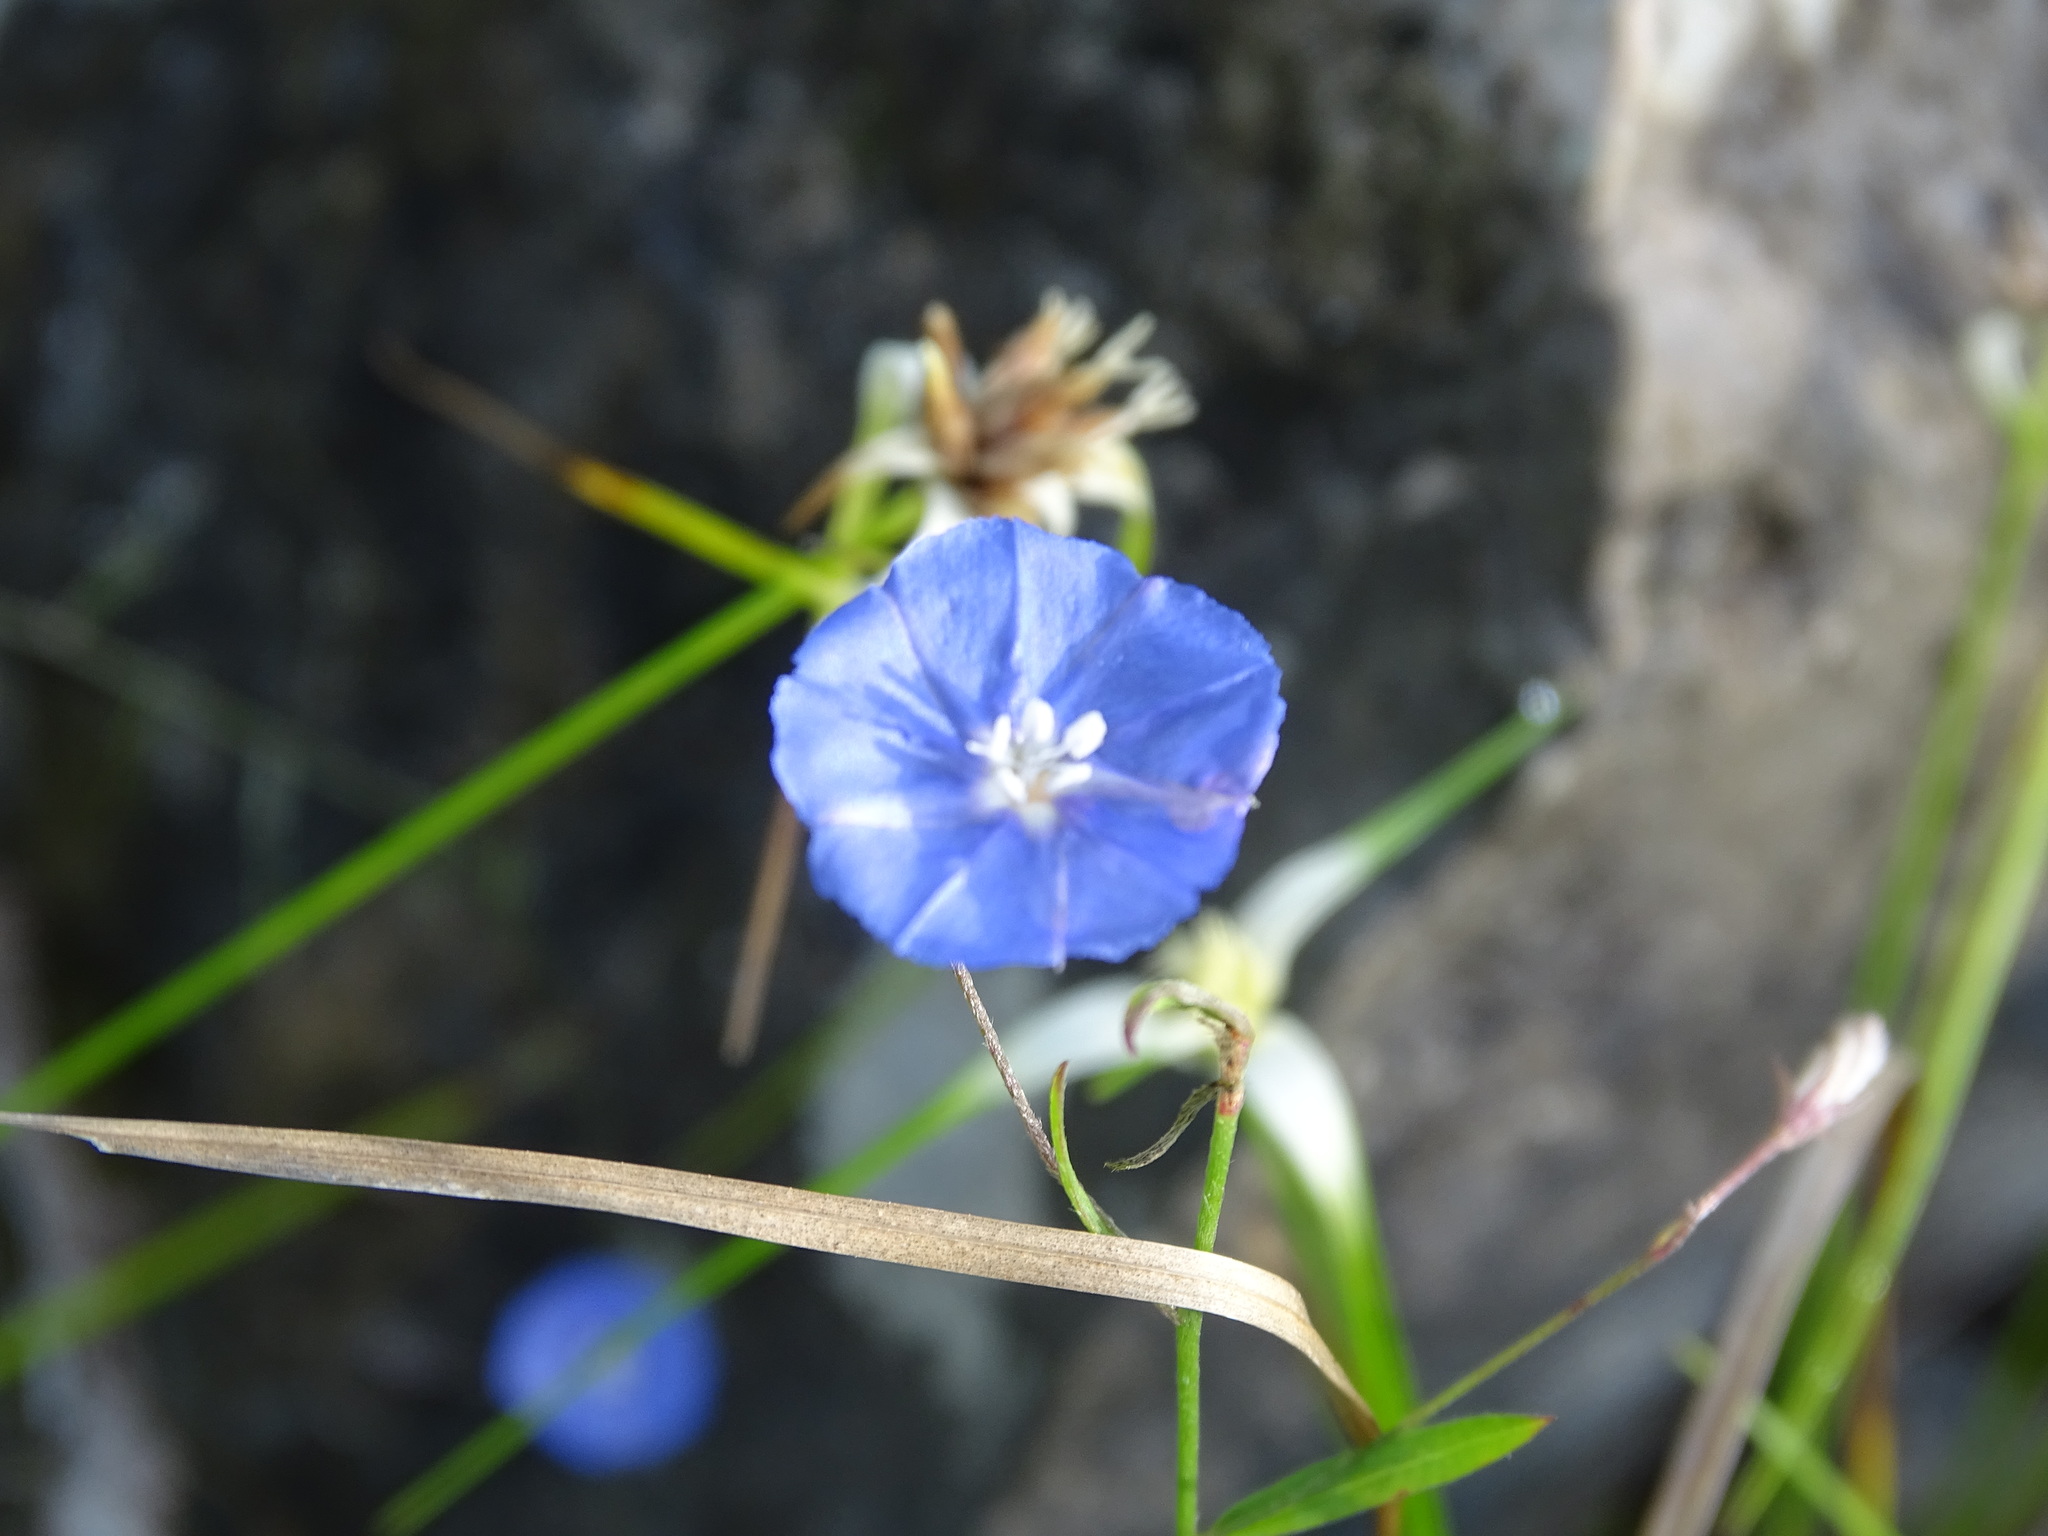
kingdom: Plantae
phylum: Tracheophyta
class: Magnoliopsida
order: Solanales
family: Convolvulaceae
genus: Evolvulus
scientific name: Evolvulus alsinoides
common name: Slender dwarf morning-glory
